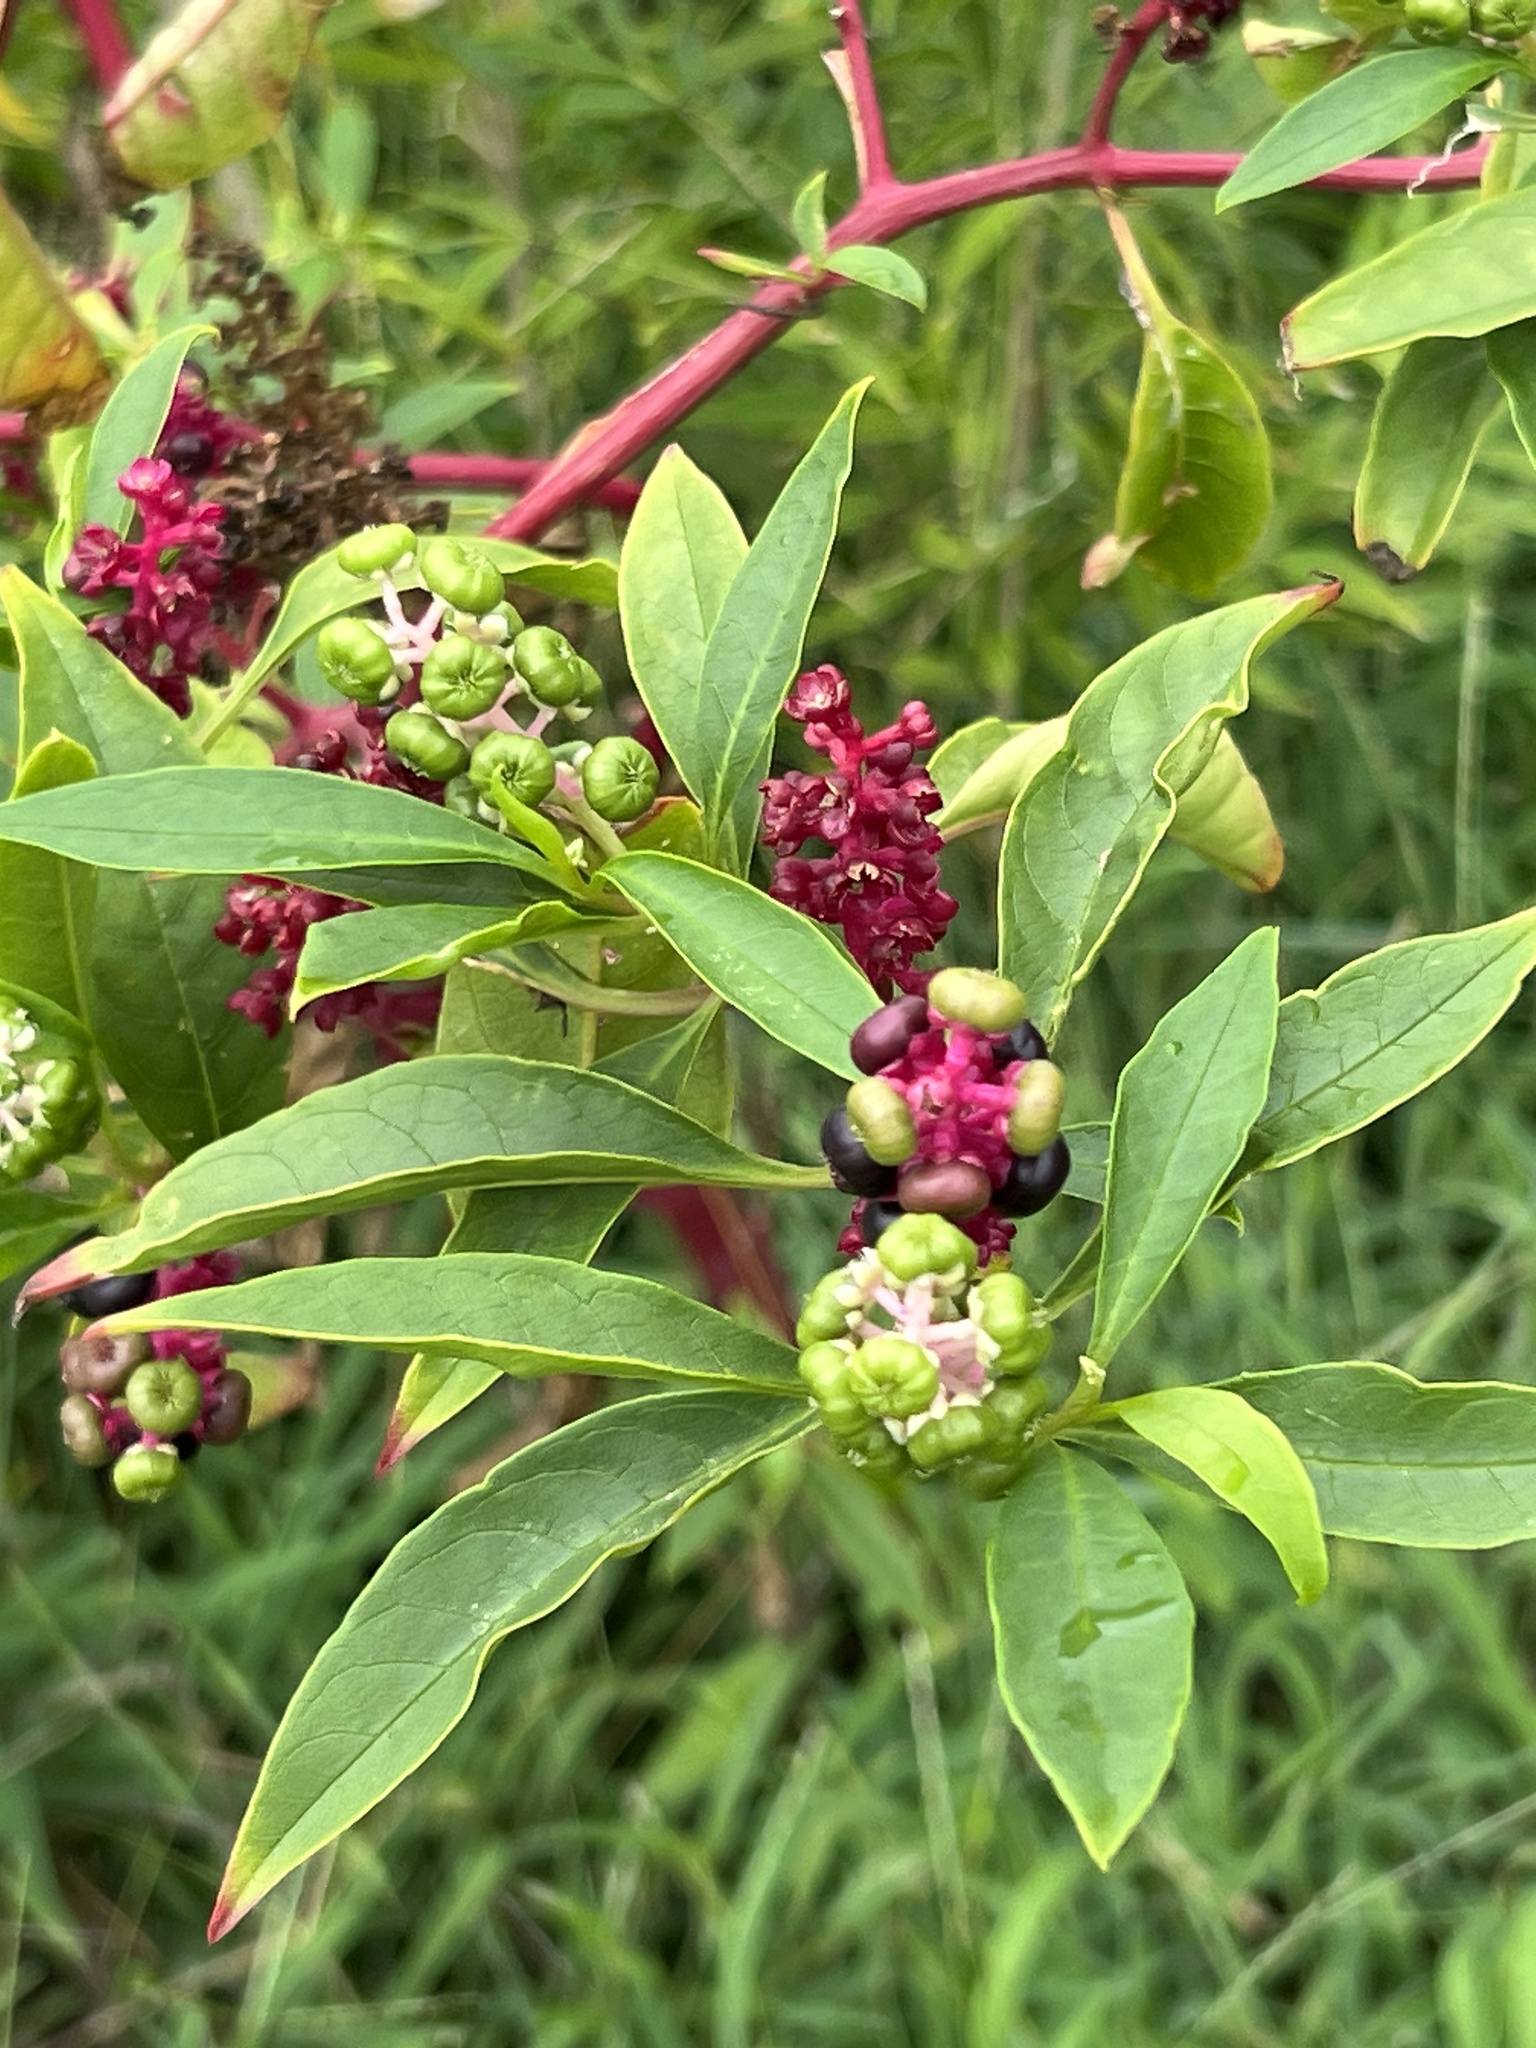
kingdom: Plantae
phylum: Tracheophyta
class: Magnoliopsida
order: Caryophyllales
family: Phytolaccaceae
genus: Phytolacca
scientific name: Phytolacca americana
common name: American pokeweed
